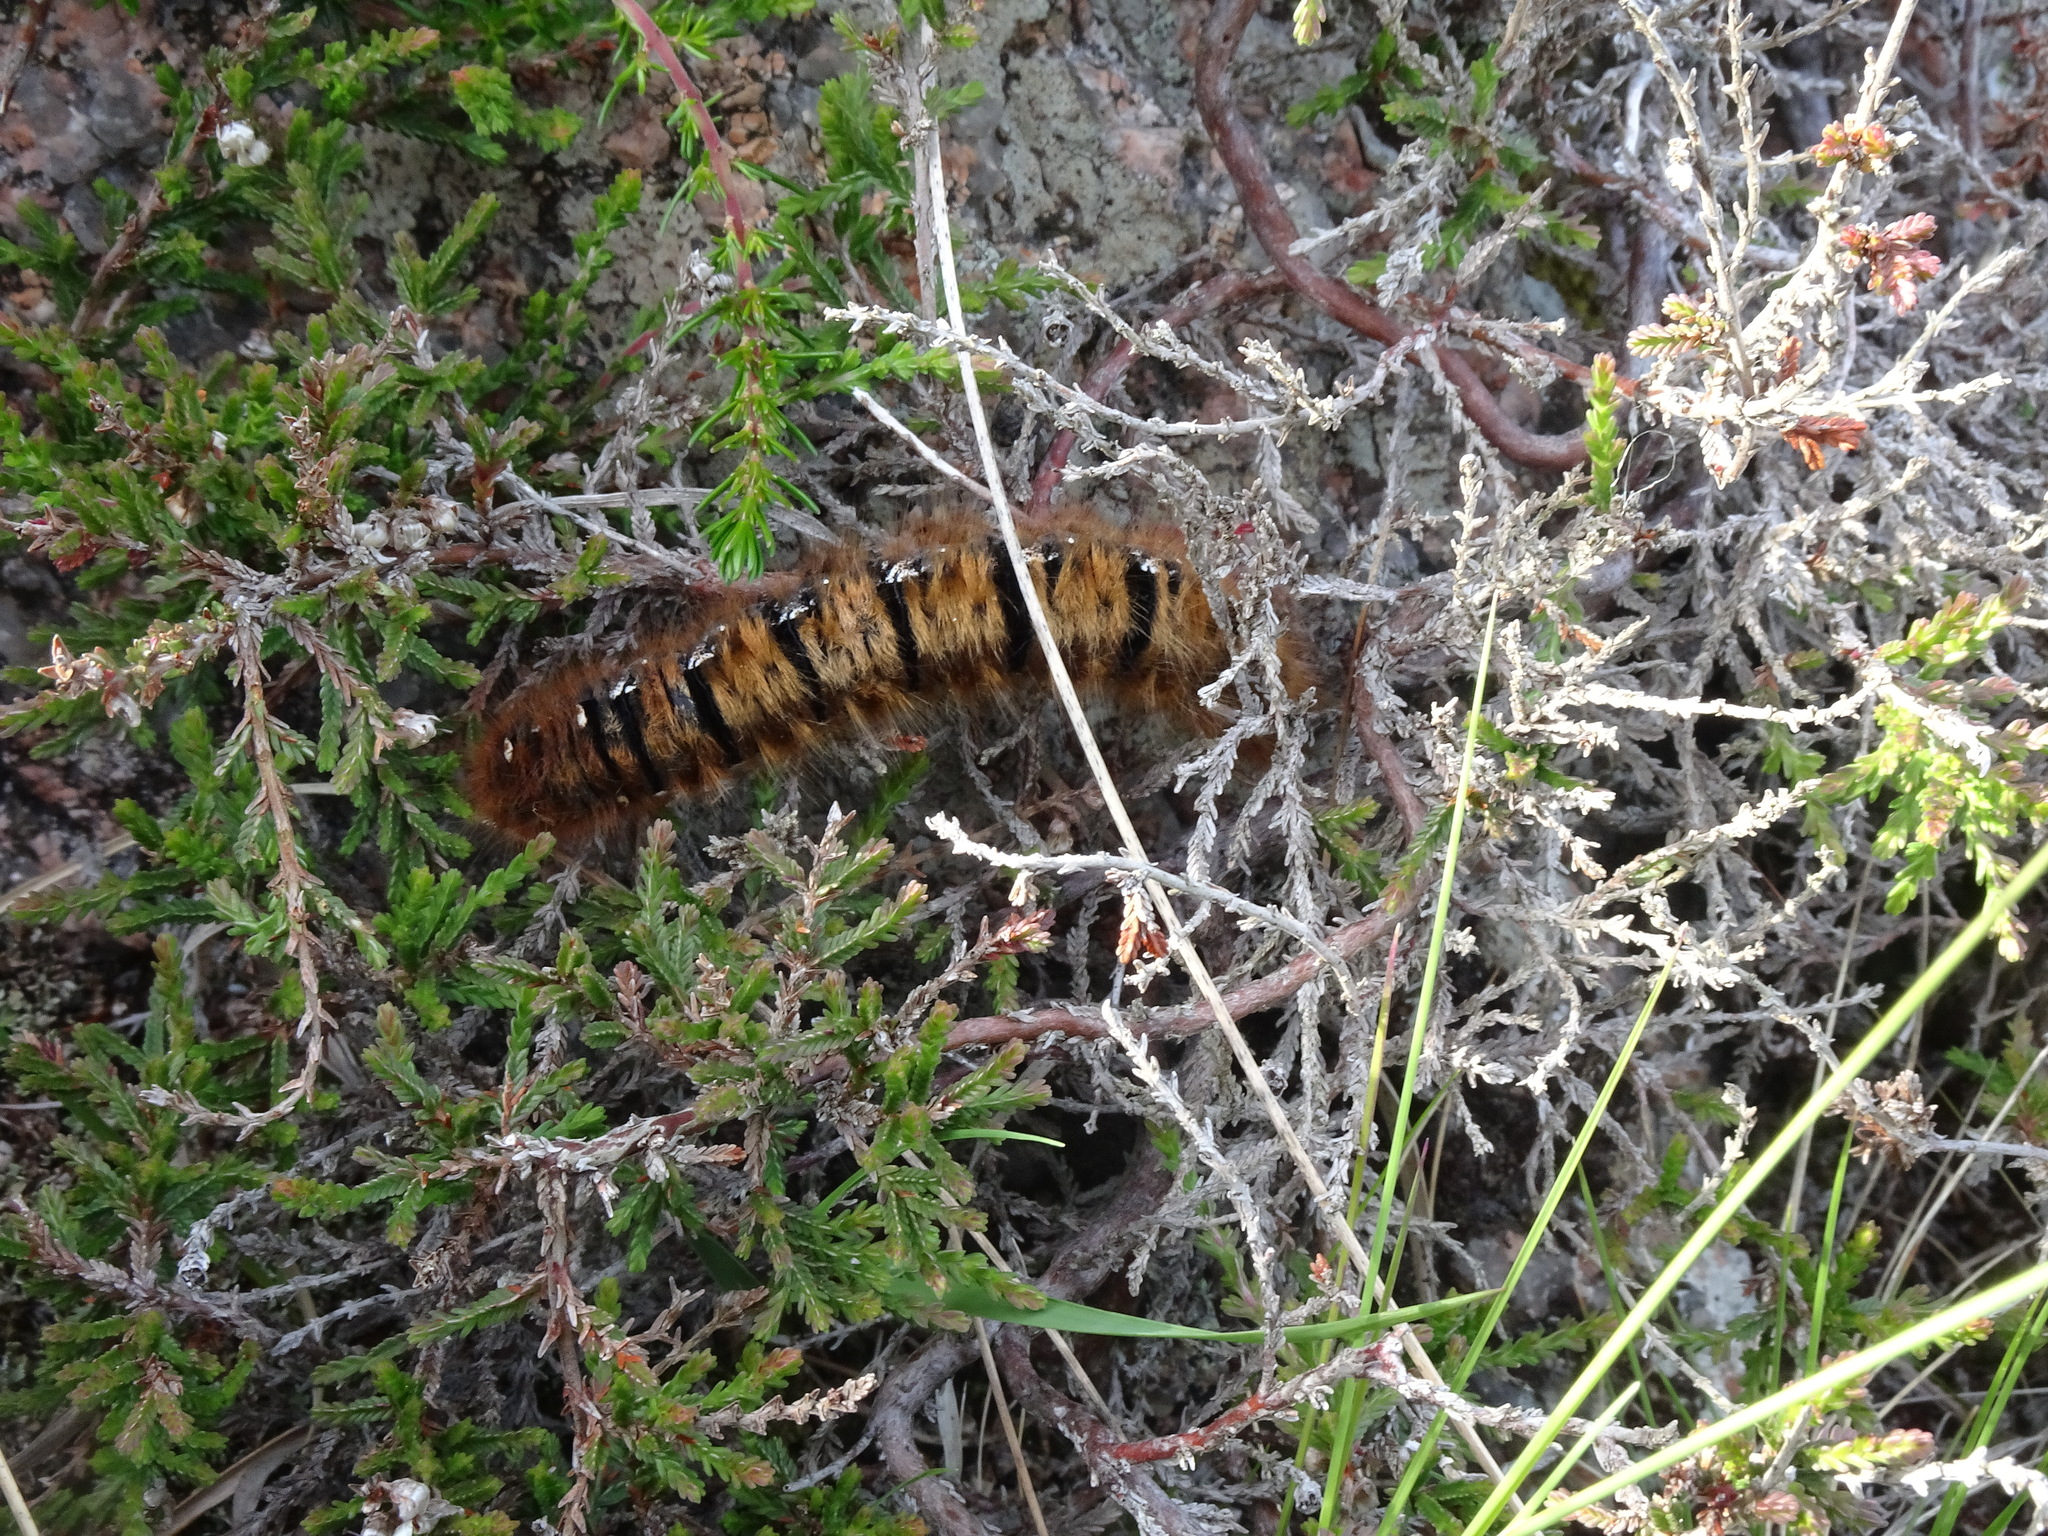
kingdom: Animalia
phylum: Arthropoda
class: Insecta
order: Lepidoptera
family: Lasiocampidae
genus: Lasiocampa
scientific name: Lasiocampa quercus
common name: Oak eggar
